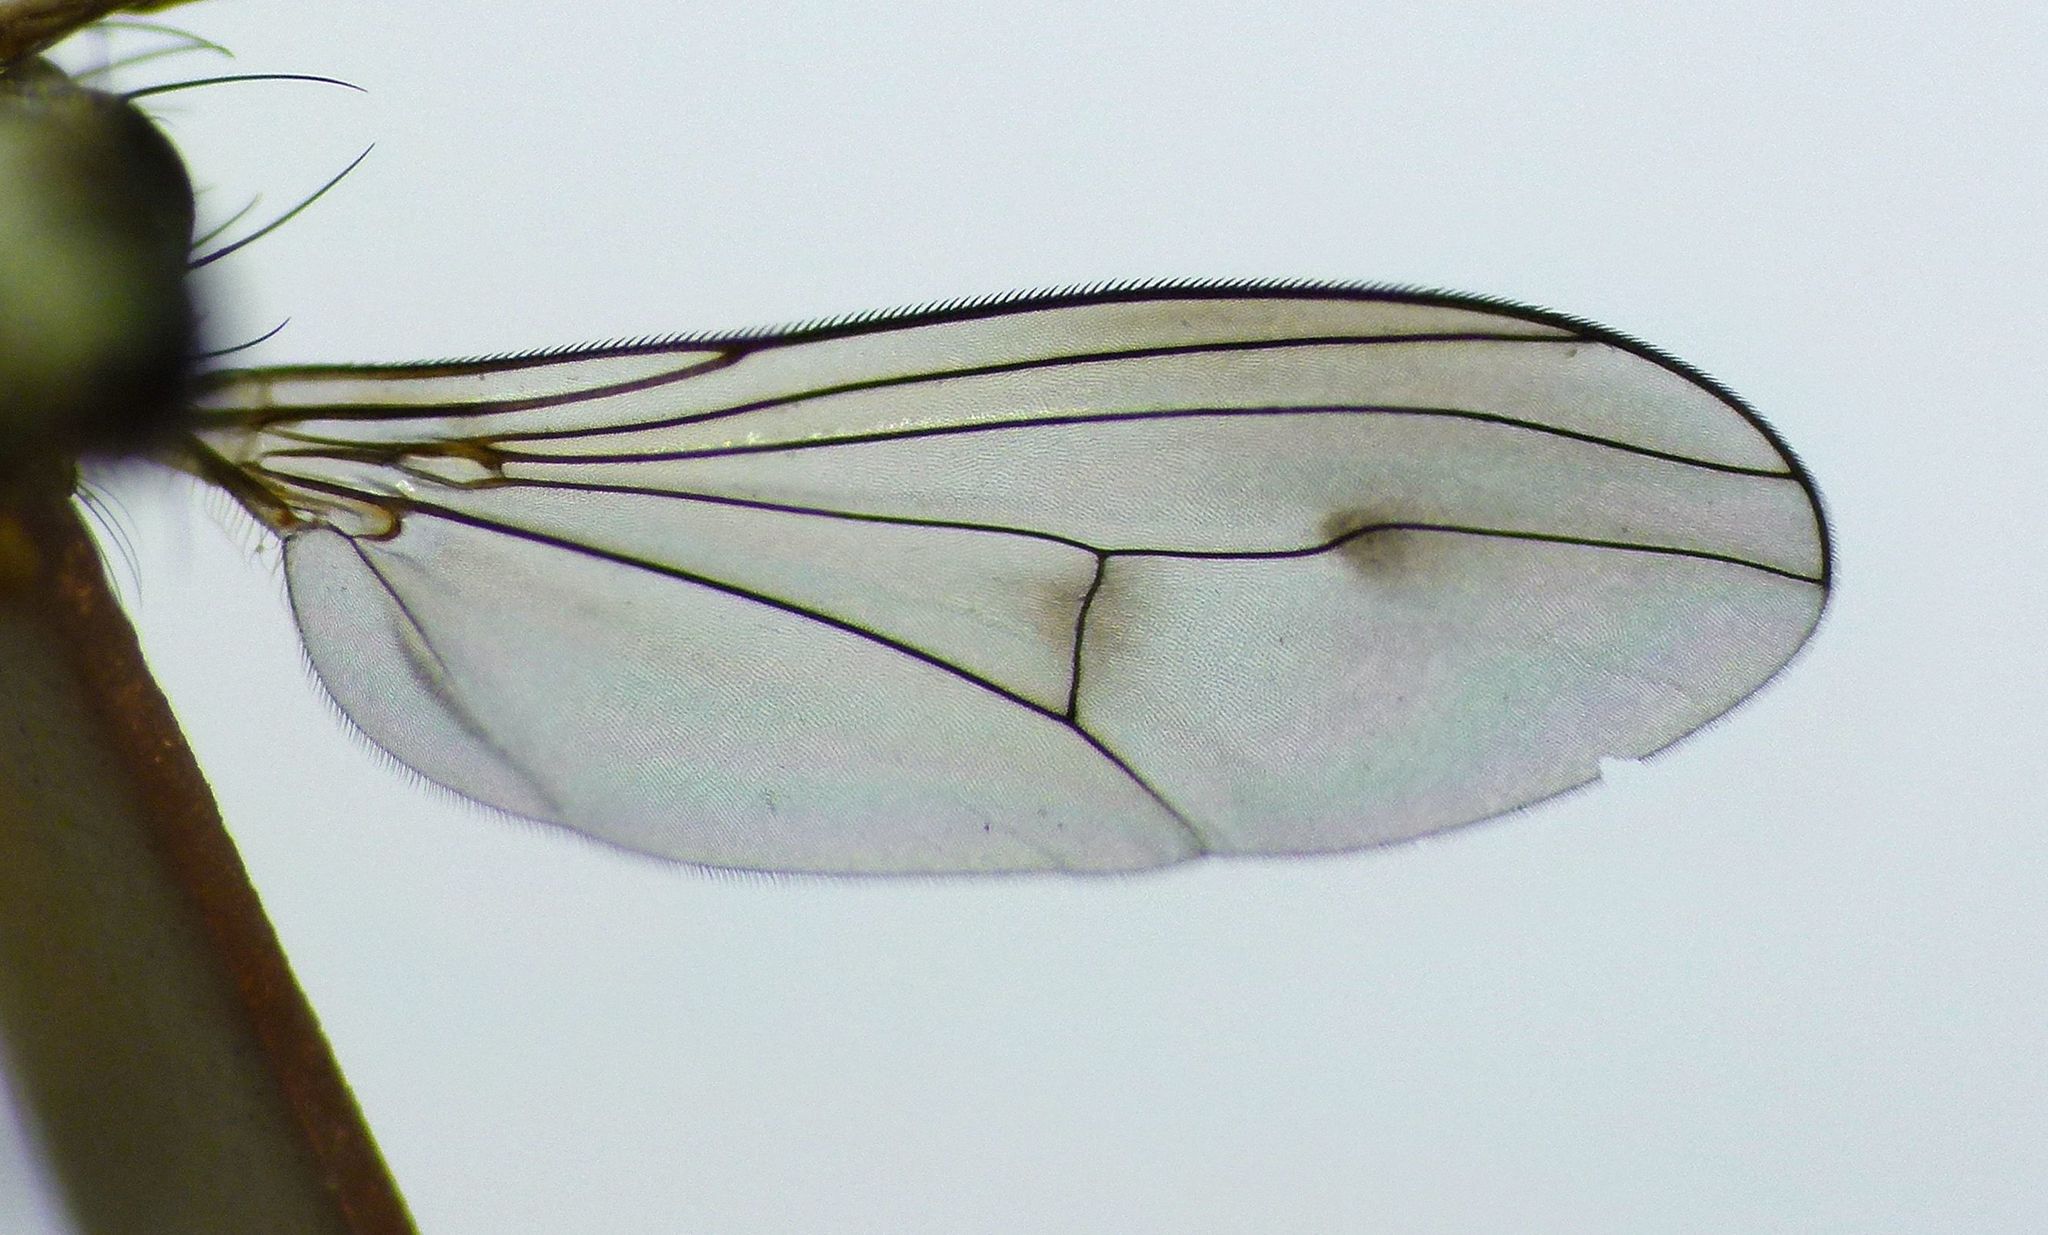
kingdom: Animalia
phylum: Arthropoda
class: Insecta
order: Diptera
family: Dolichopodidae
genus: Helichochaetus
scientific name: Helichochaetus discifer
